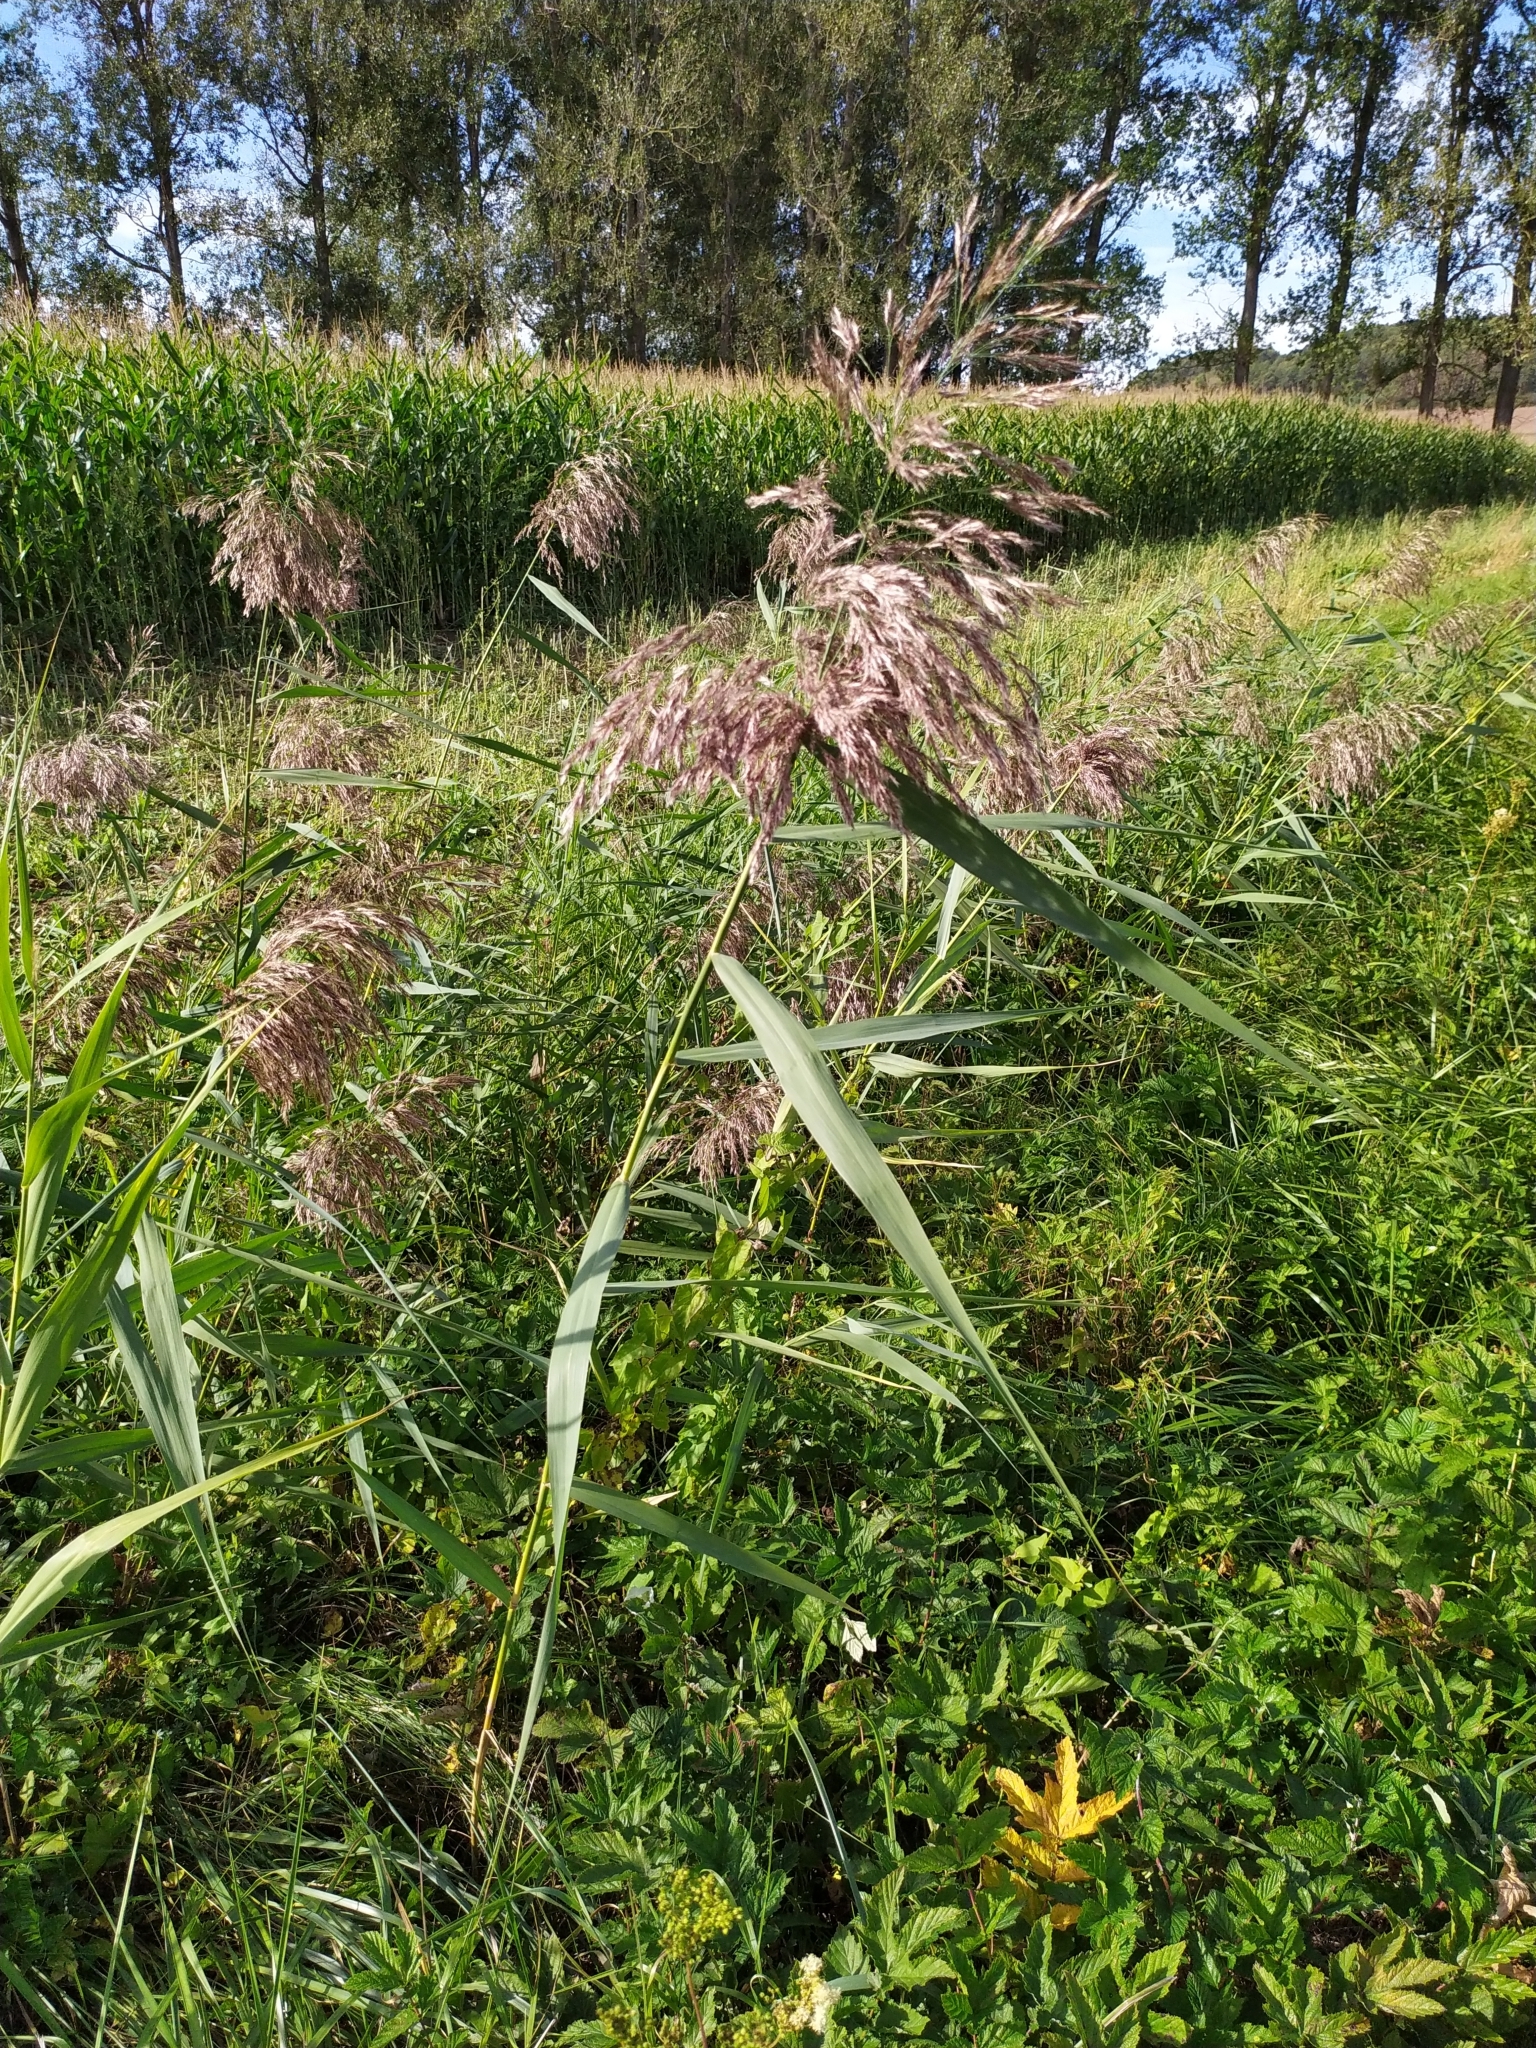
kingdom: Plantae
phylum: Tracheophyta
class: Liliopsida
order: Poales
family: Poaceae
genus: Phragmites
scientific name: Phragmites australis
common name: Common reed
